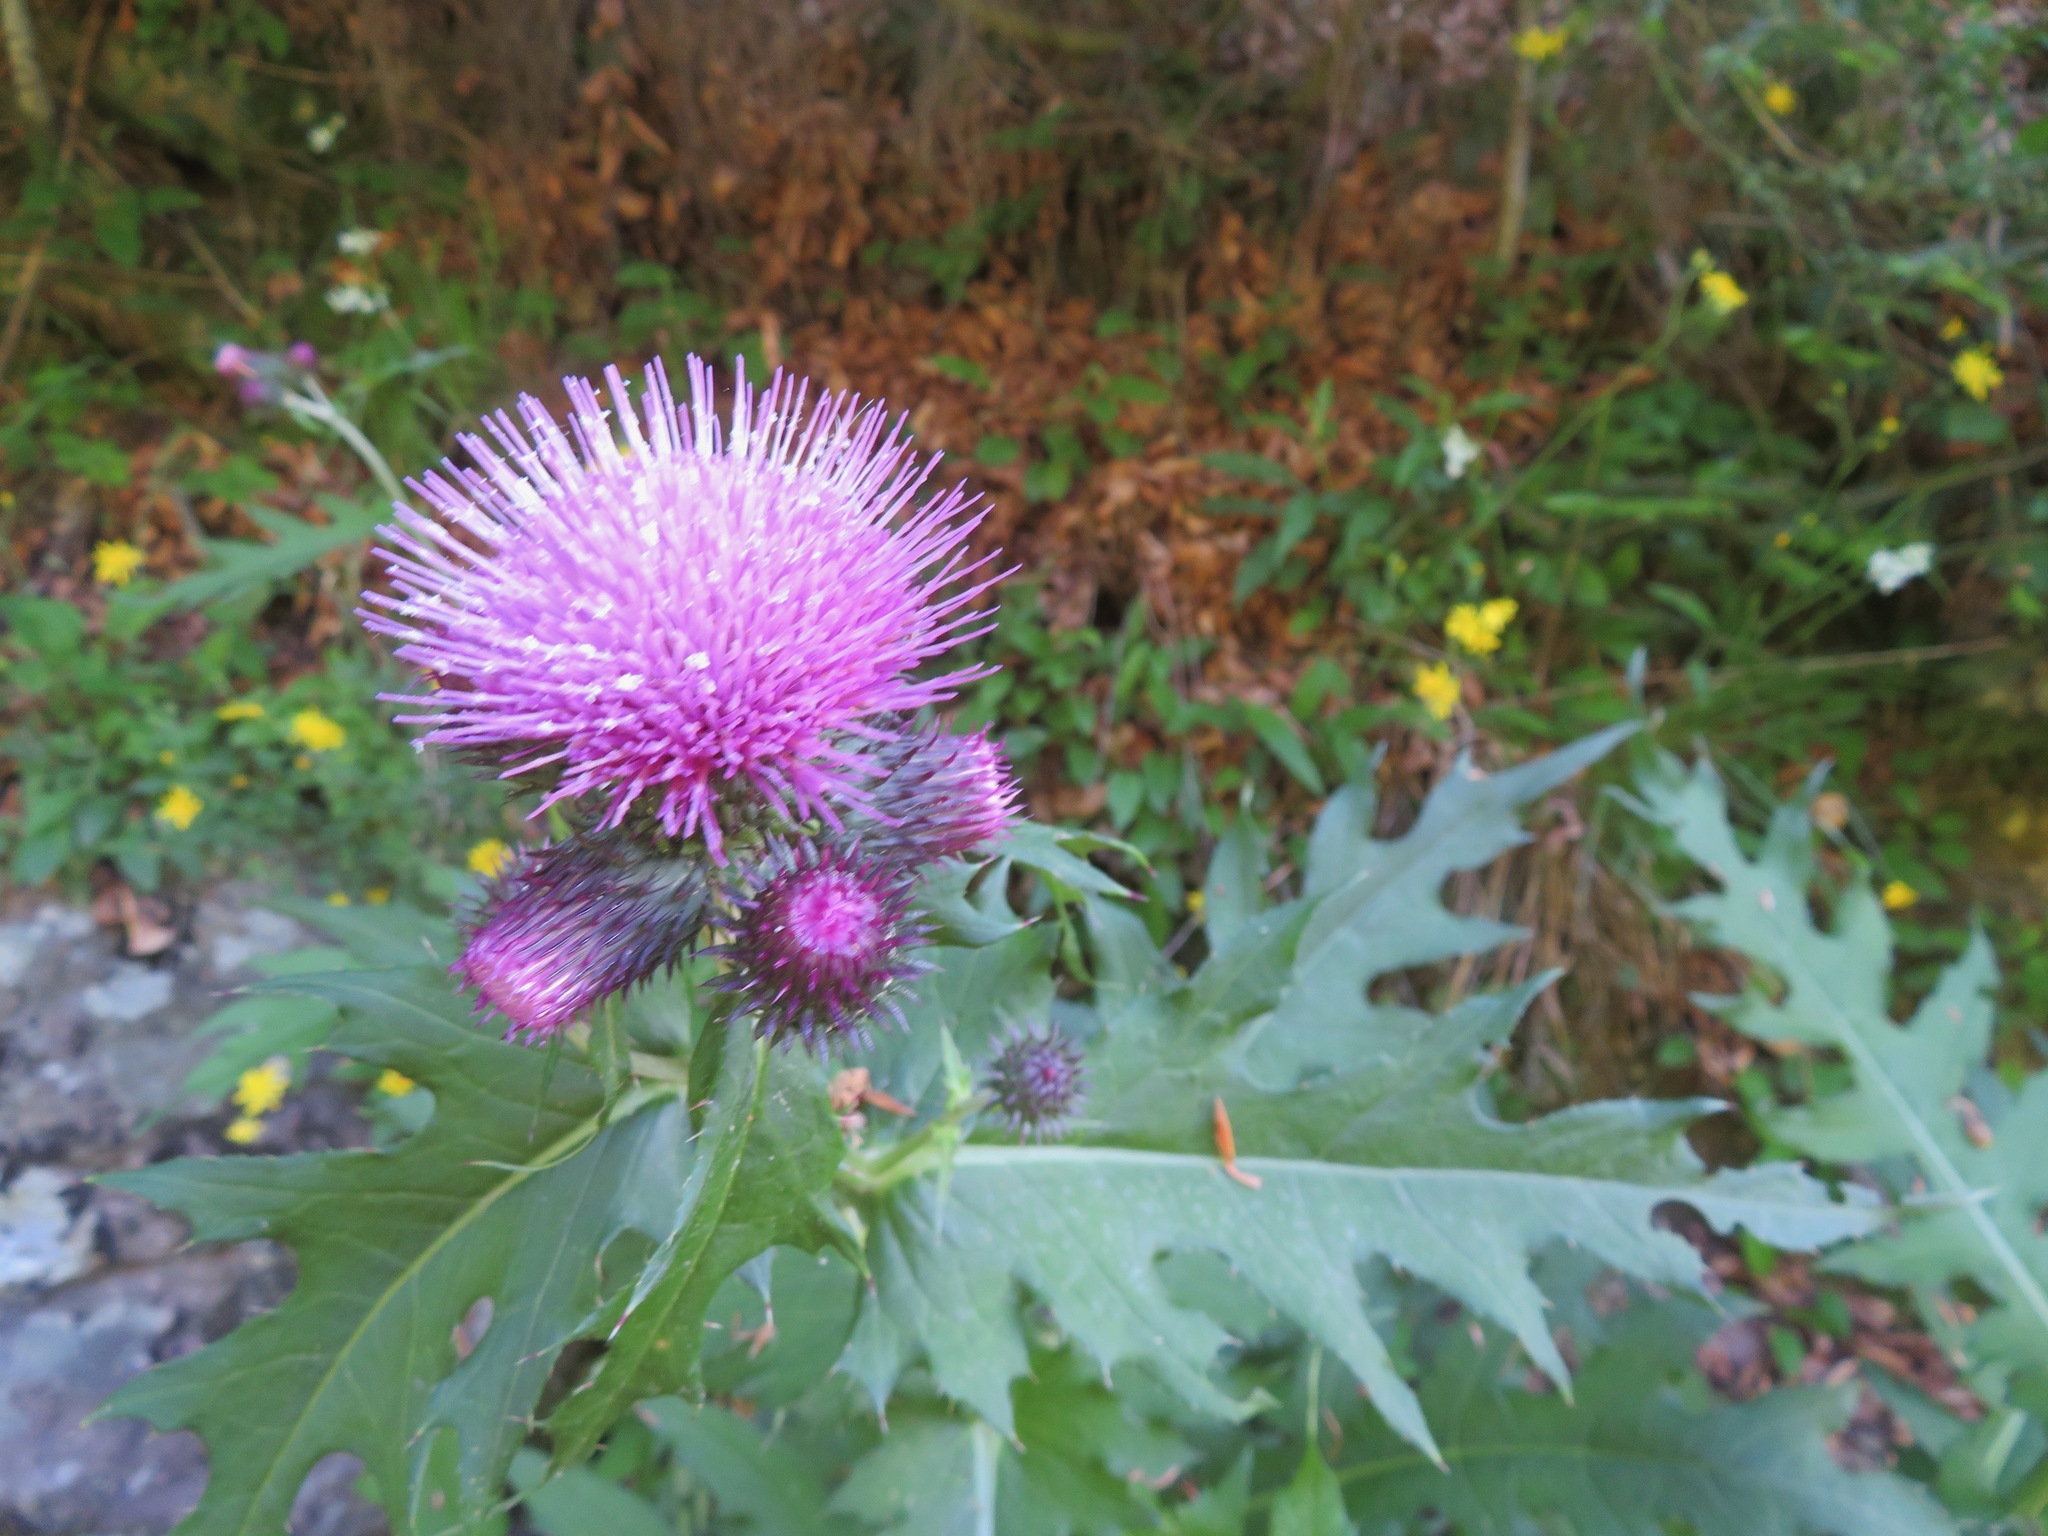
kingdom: Plantae
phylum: Tracheophyta
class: Magnoliopsida
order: Asterales
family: Asteraceae
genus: Cirsium
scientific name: Cirsium alsophilum
